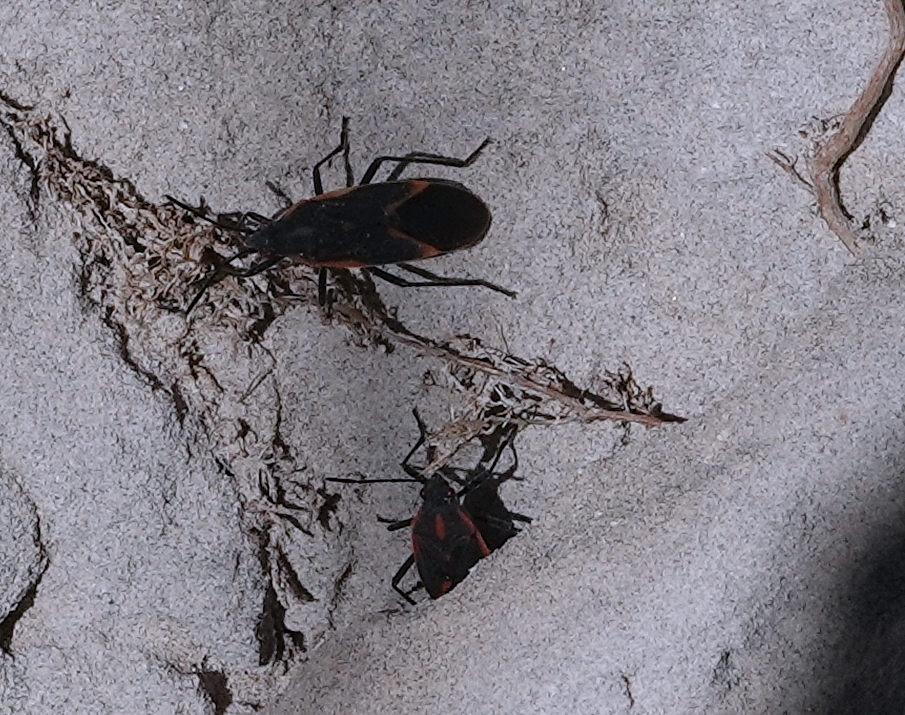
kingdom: Animalia
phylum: Arthropoda
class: Insecta
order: Hemiptera
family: Rhopalidae
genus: Boisea
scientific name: Boisea trivittata
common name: Boxelder bug
